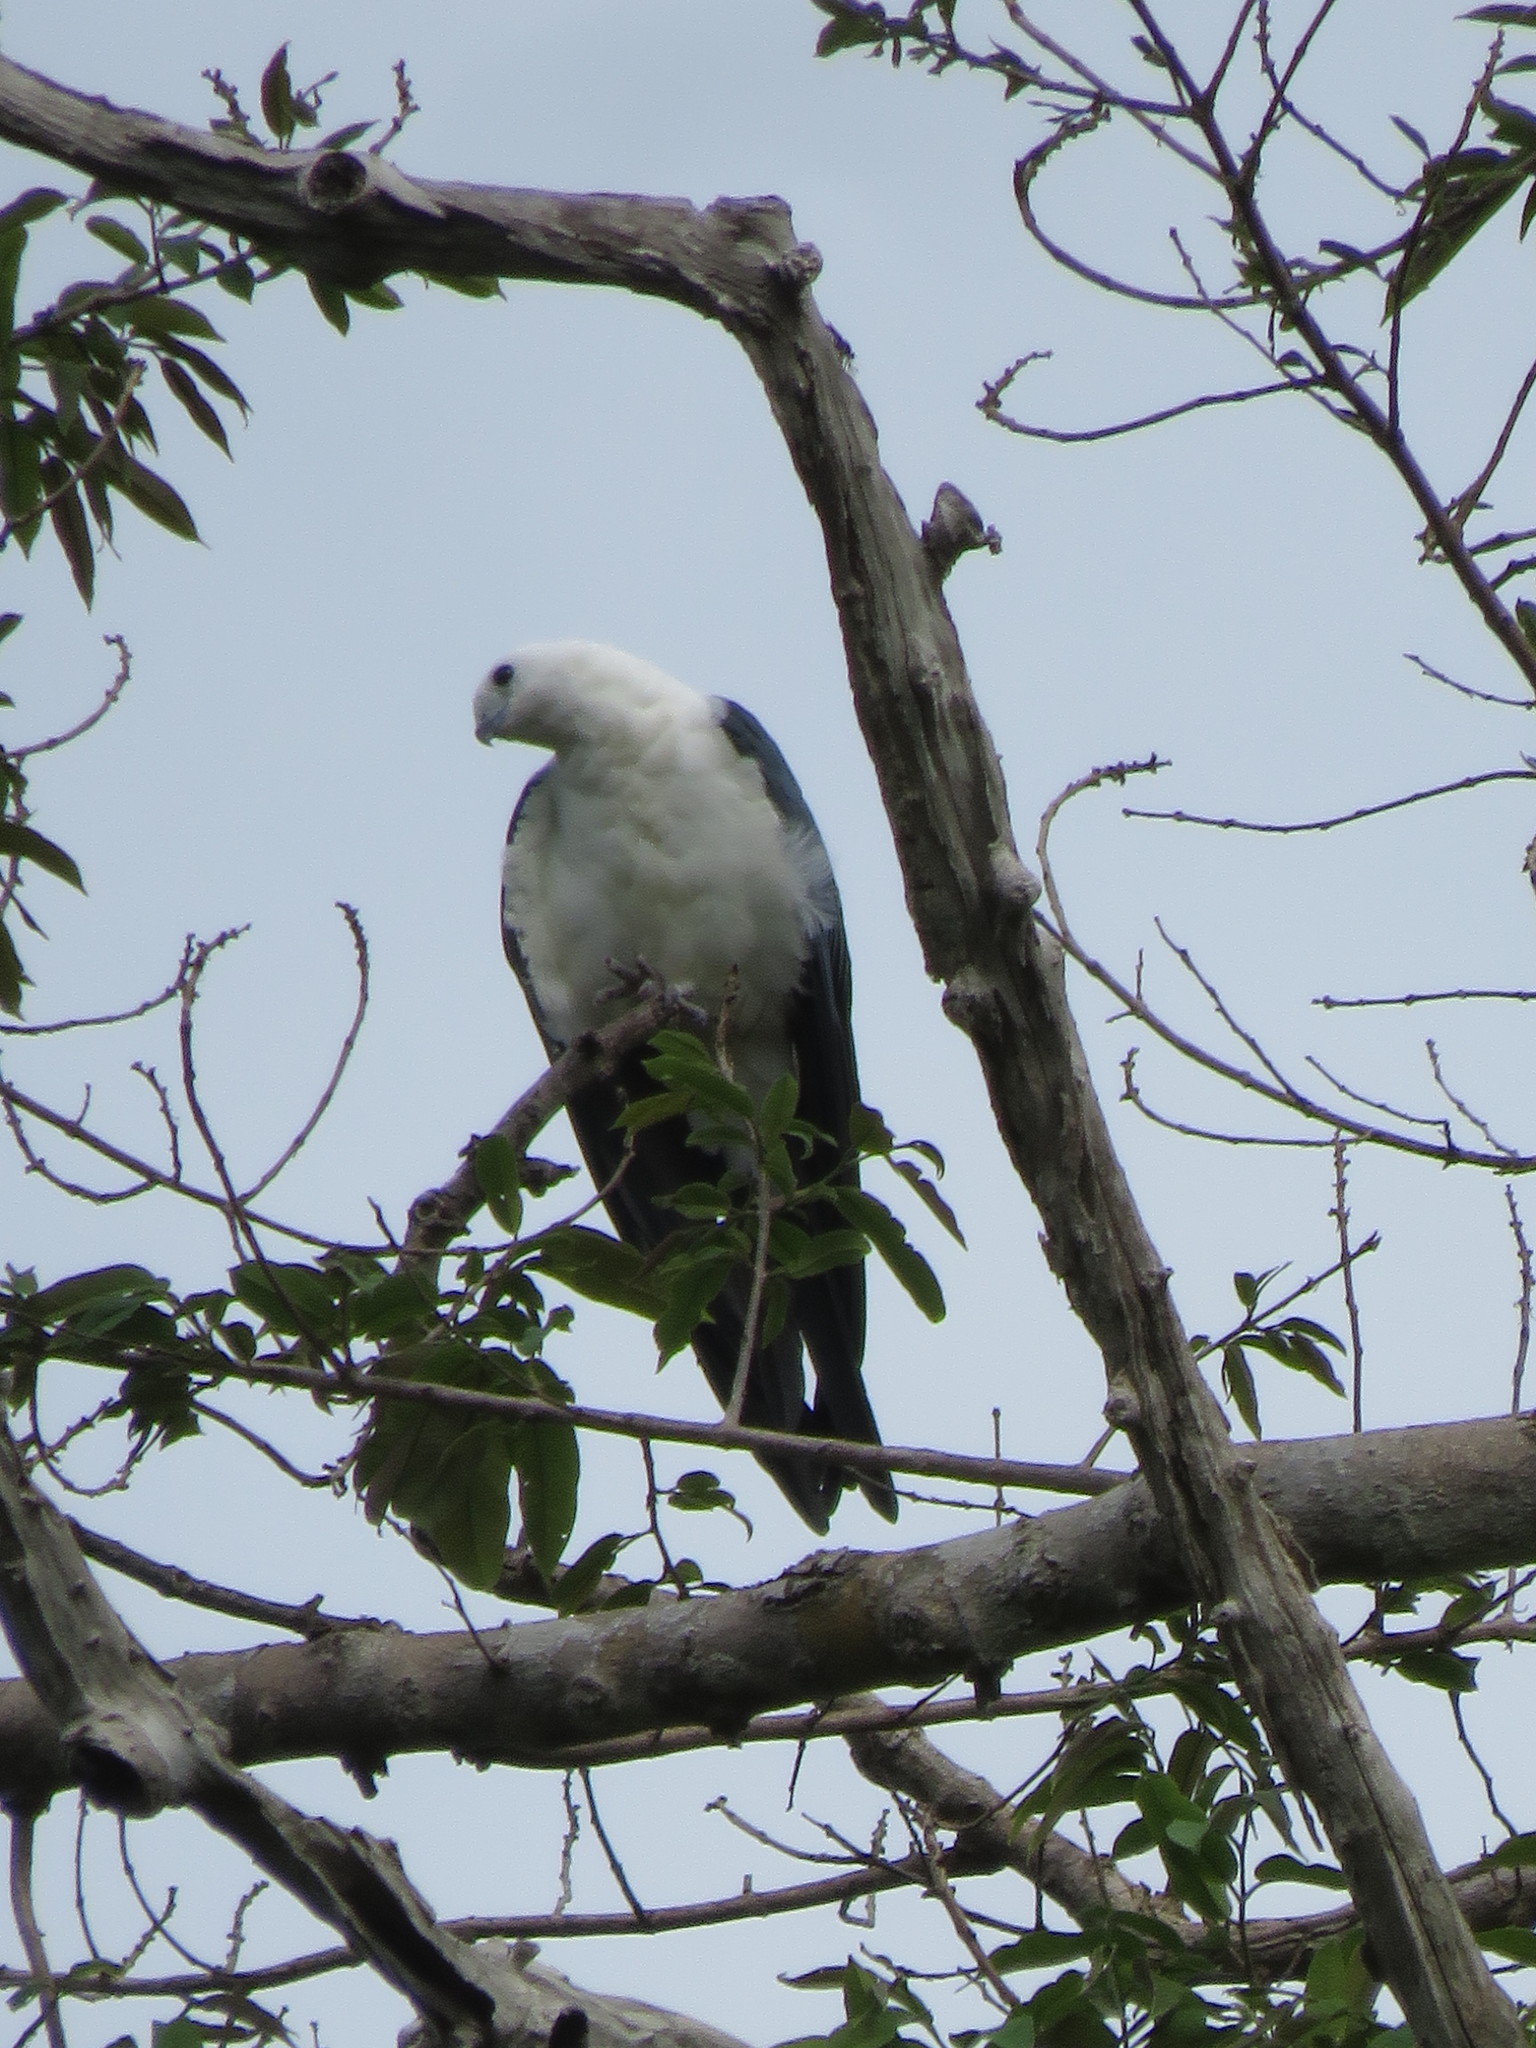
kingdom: Animalia
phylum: Chordata
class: Aves
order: Accipitriformes
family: Accipitridae
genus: Elanoides
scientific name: Elanoides forficatus
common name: Swallow-tailed kite
